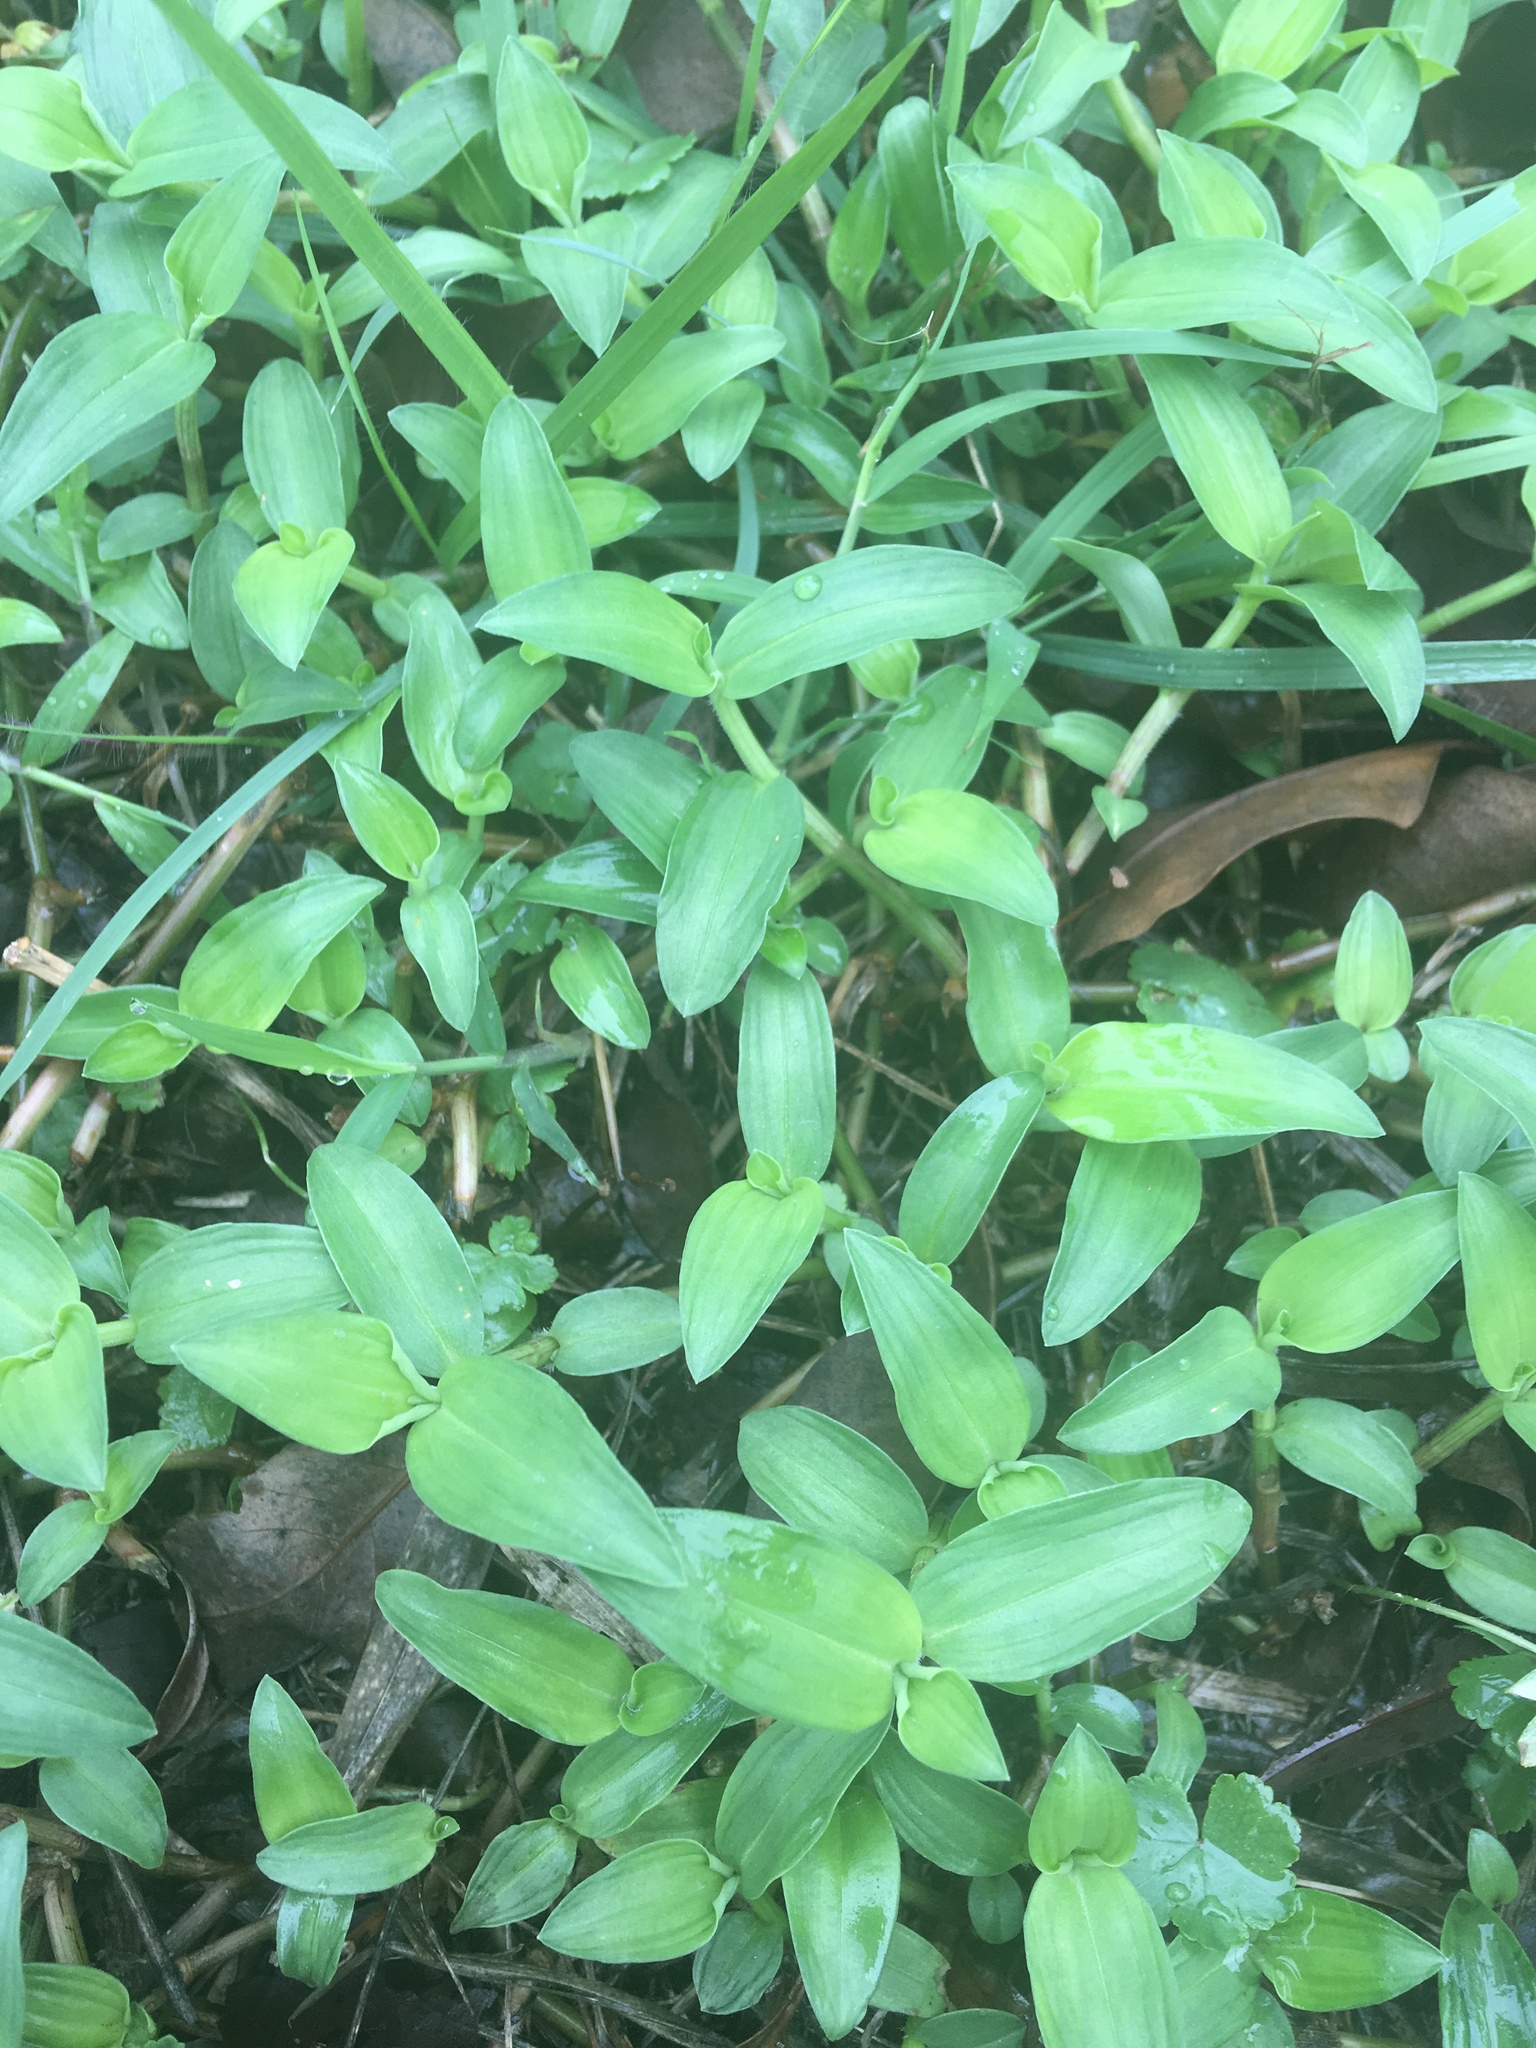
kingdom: Plantae
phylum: Tracheophyta
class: Liliopsida
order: Commelinales
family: Commelinaceae
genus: Commelina
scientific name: Commelina diffusa
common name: Climbing dayflower
